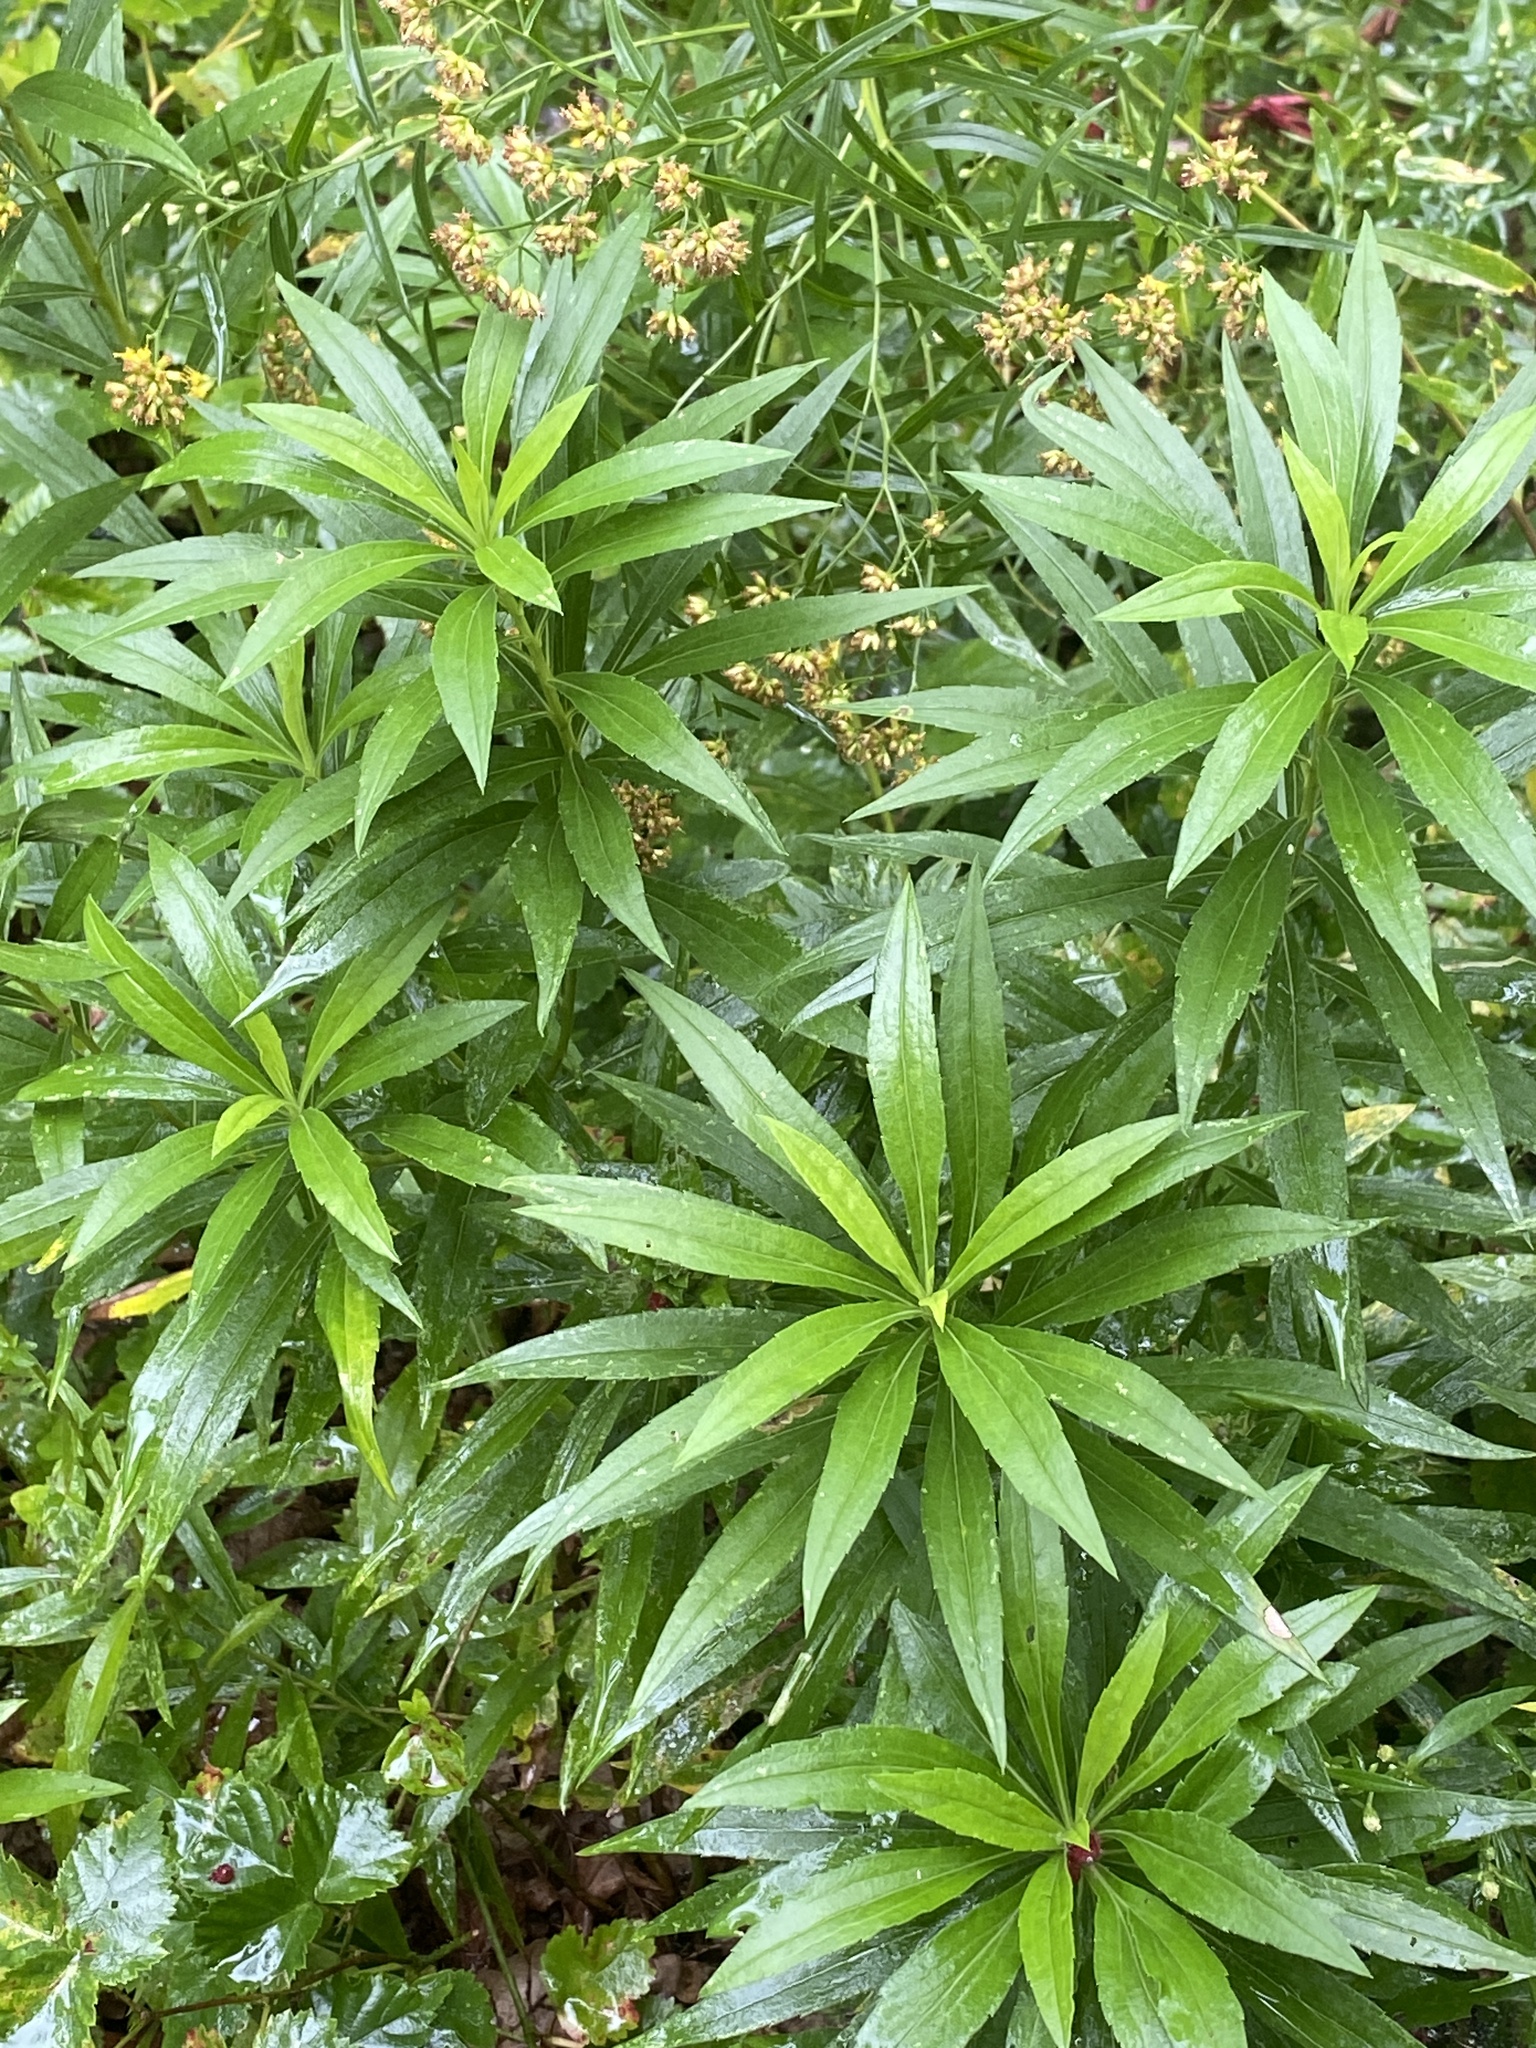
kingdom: Plantae
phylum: Tracheophyta
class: Magnoliopsida
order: Asterales
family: Asteraceae
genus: Solidago
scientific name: Solidago altissima
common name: Late goldenrod
